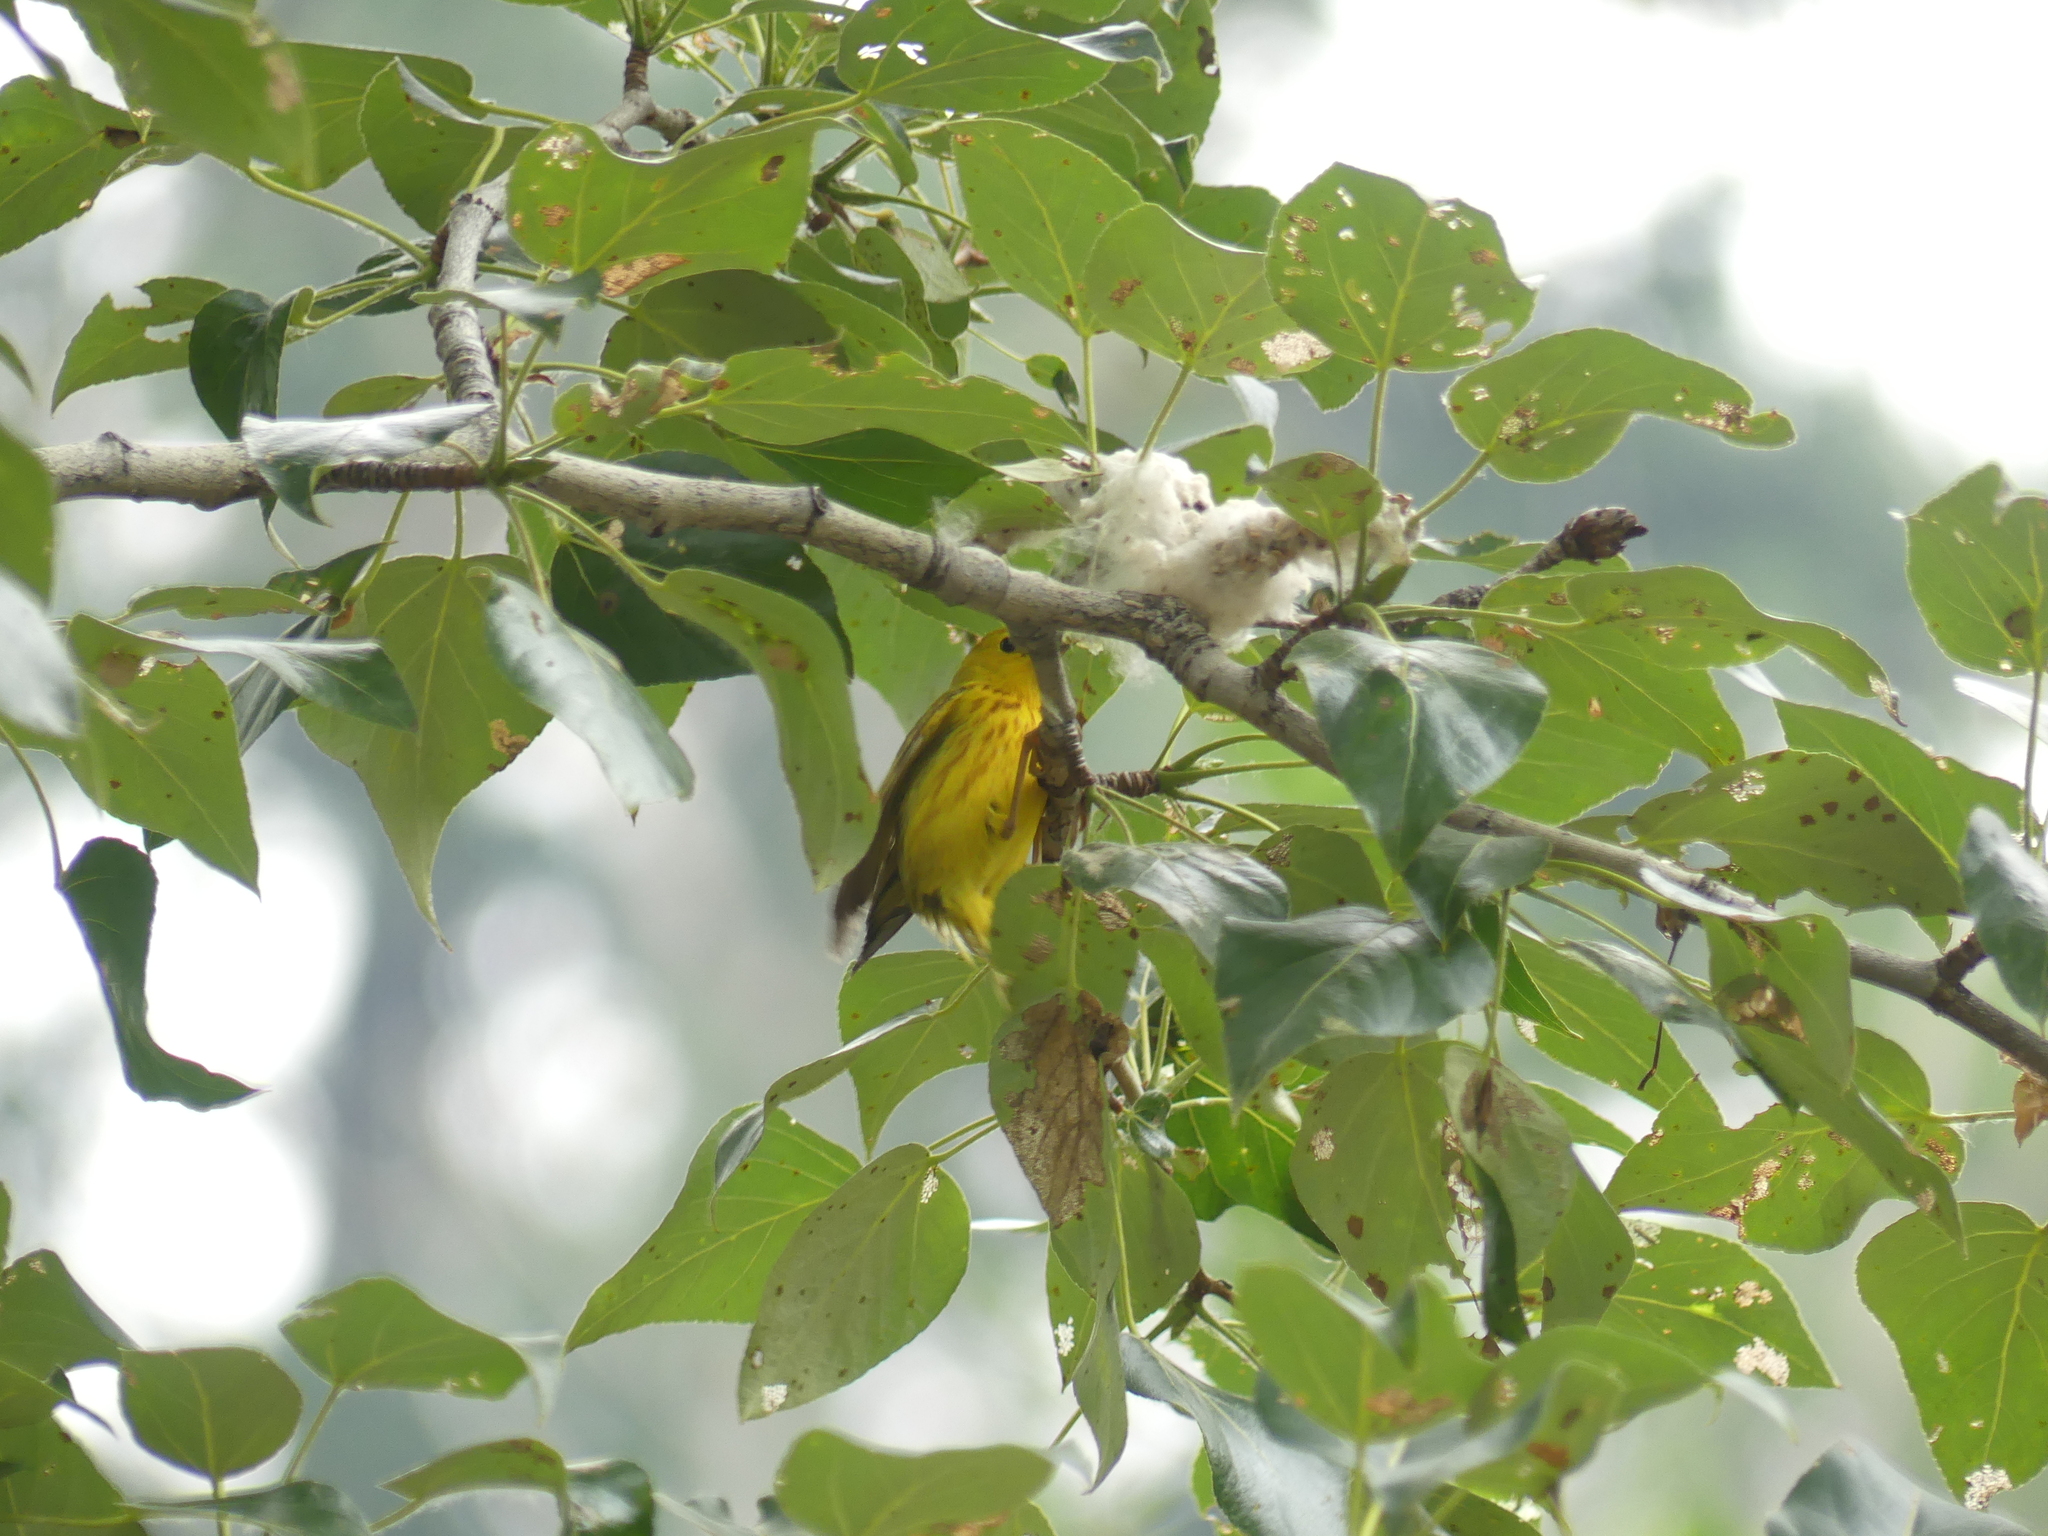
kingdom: Animalia
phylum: Chordata
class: Aves
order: Passeriformes
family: Parulidae
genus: Setophaga
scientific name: Setophaga petechia
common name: Yellow warbler
